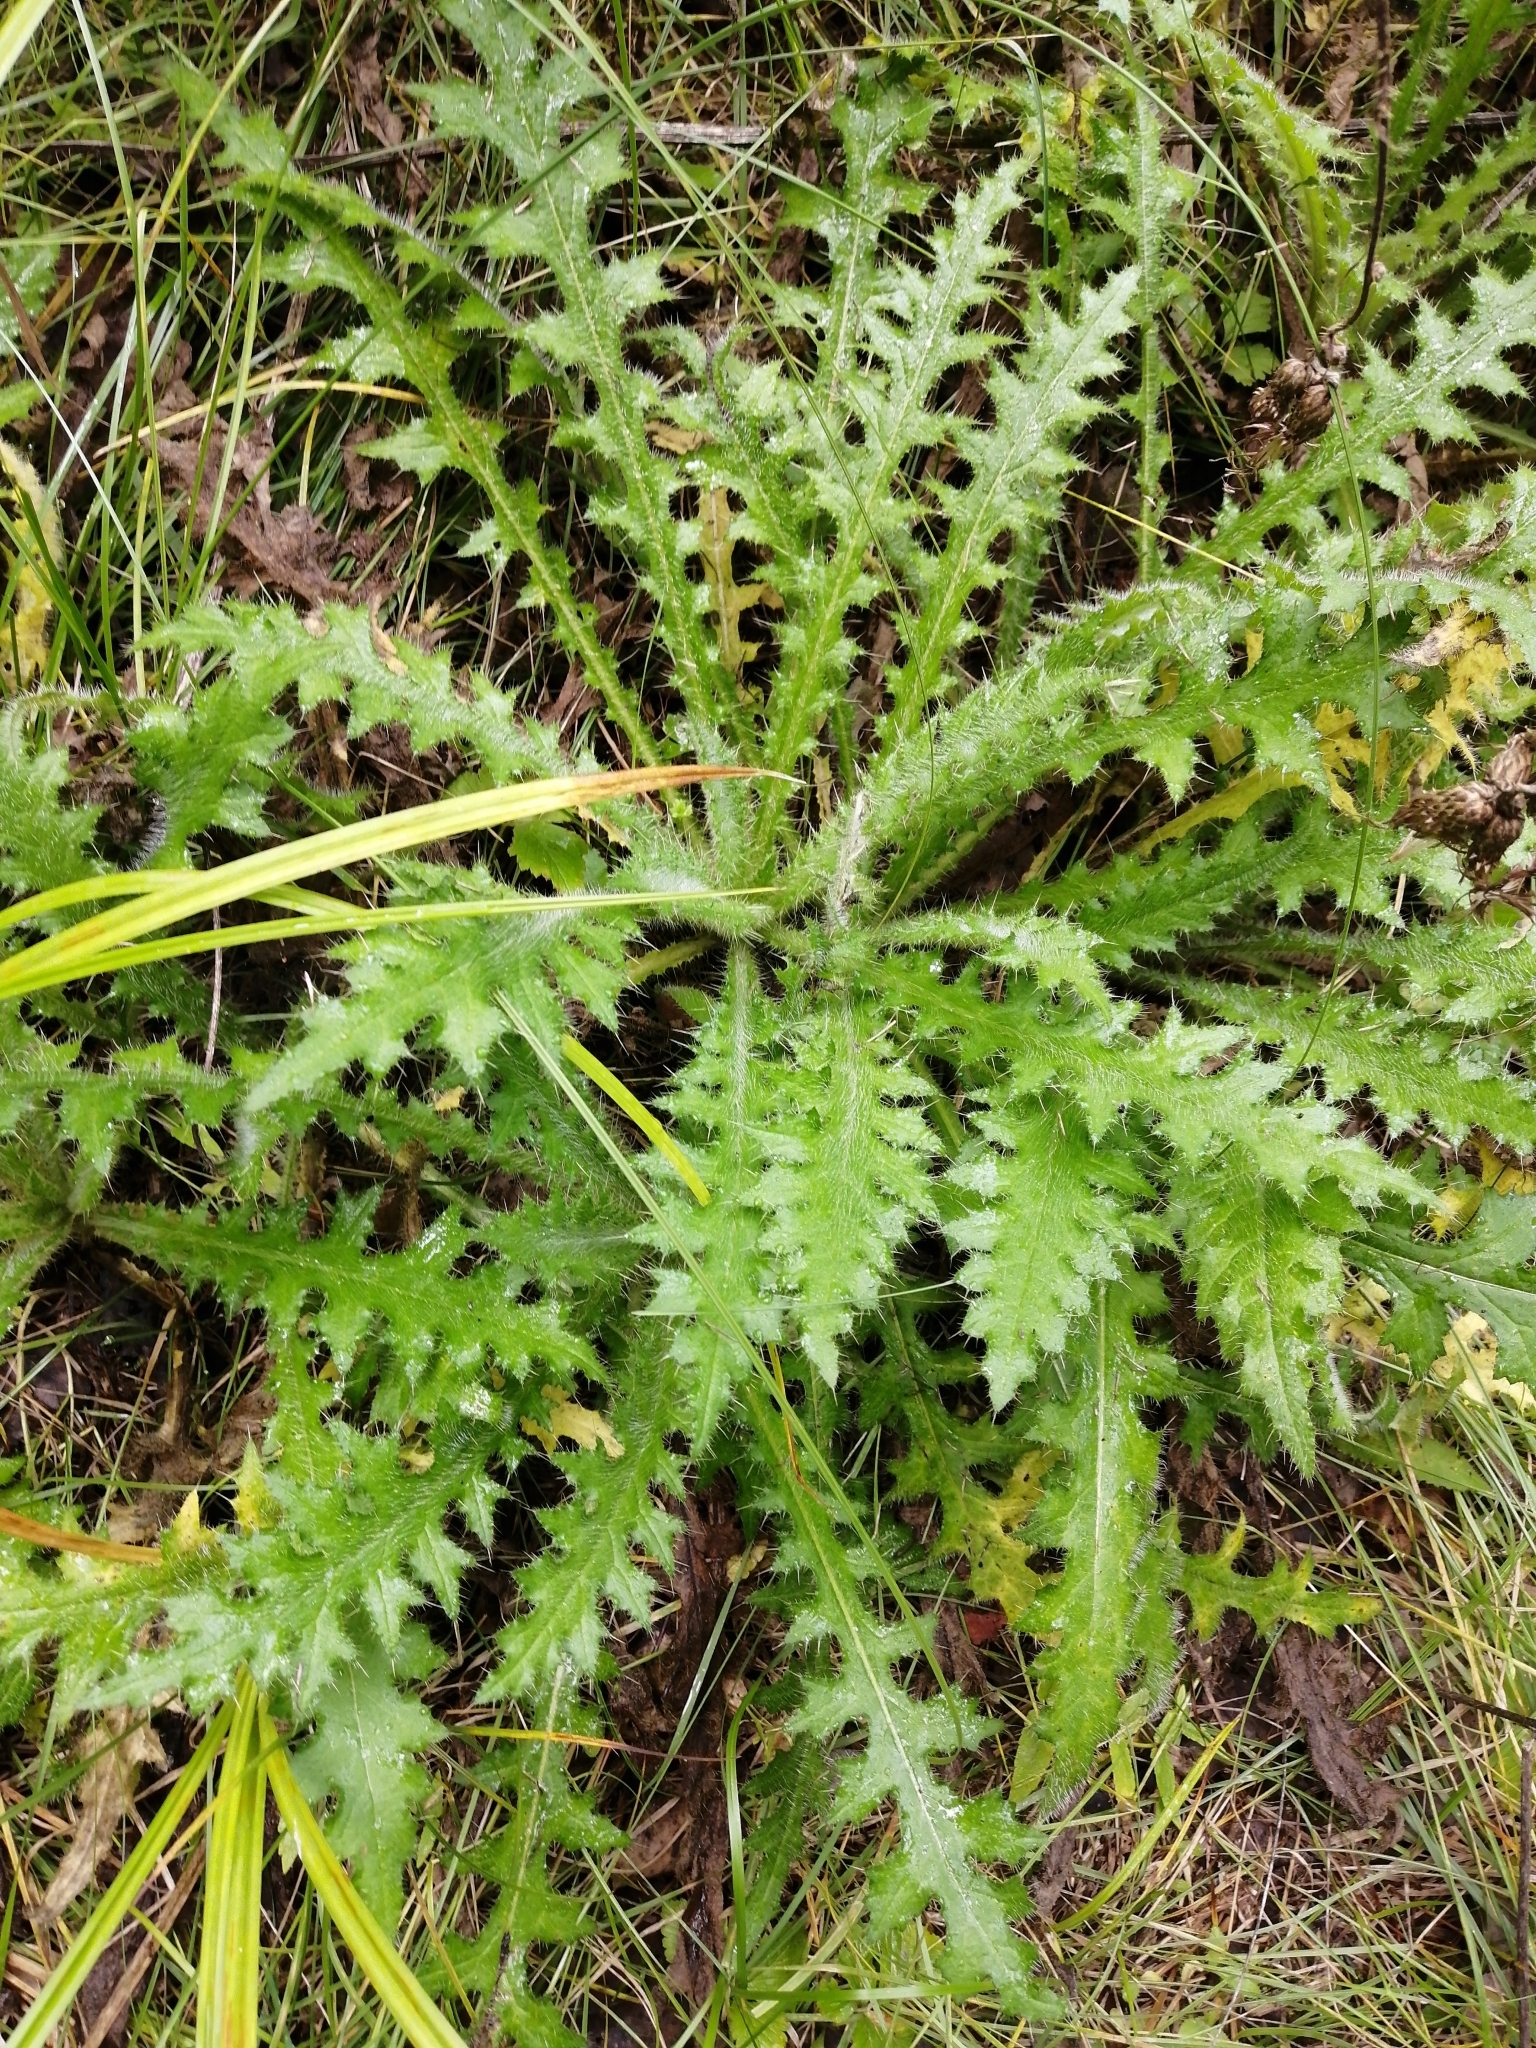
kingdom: Plantae
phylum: Tracheophyta
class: Magnoliopsida
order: Asterales
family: Asteraceae
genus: Cirsium
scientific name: Cirsium palustre
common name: Marsh thistle
